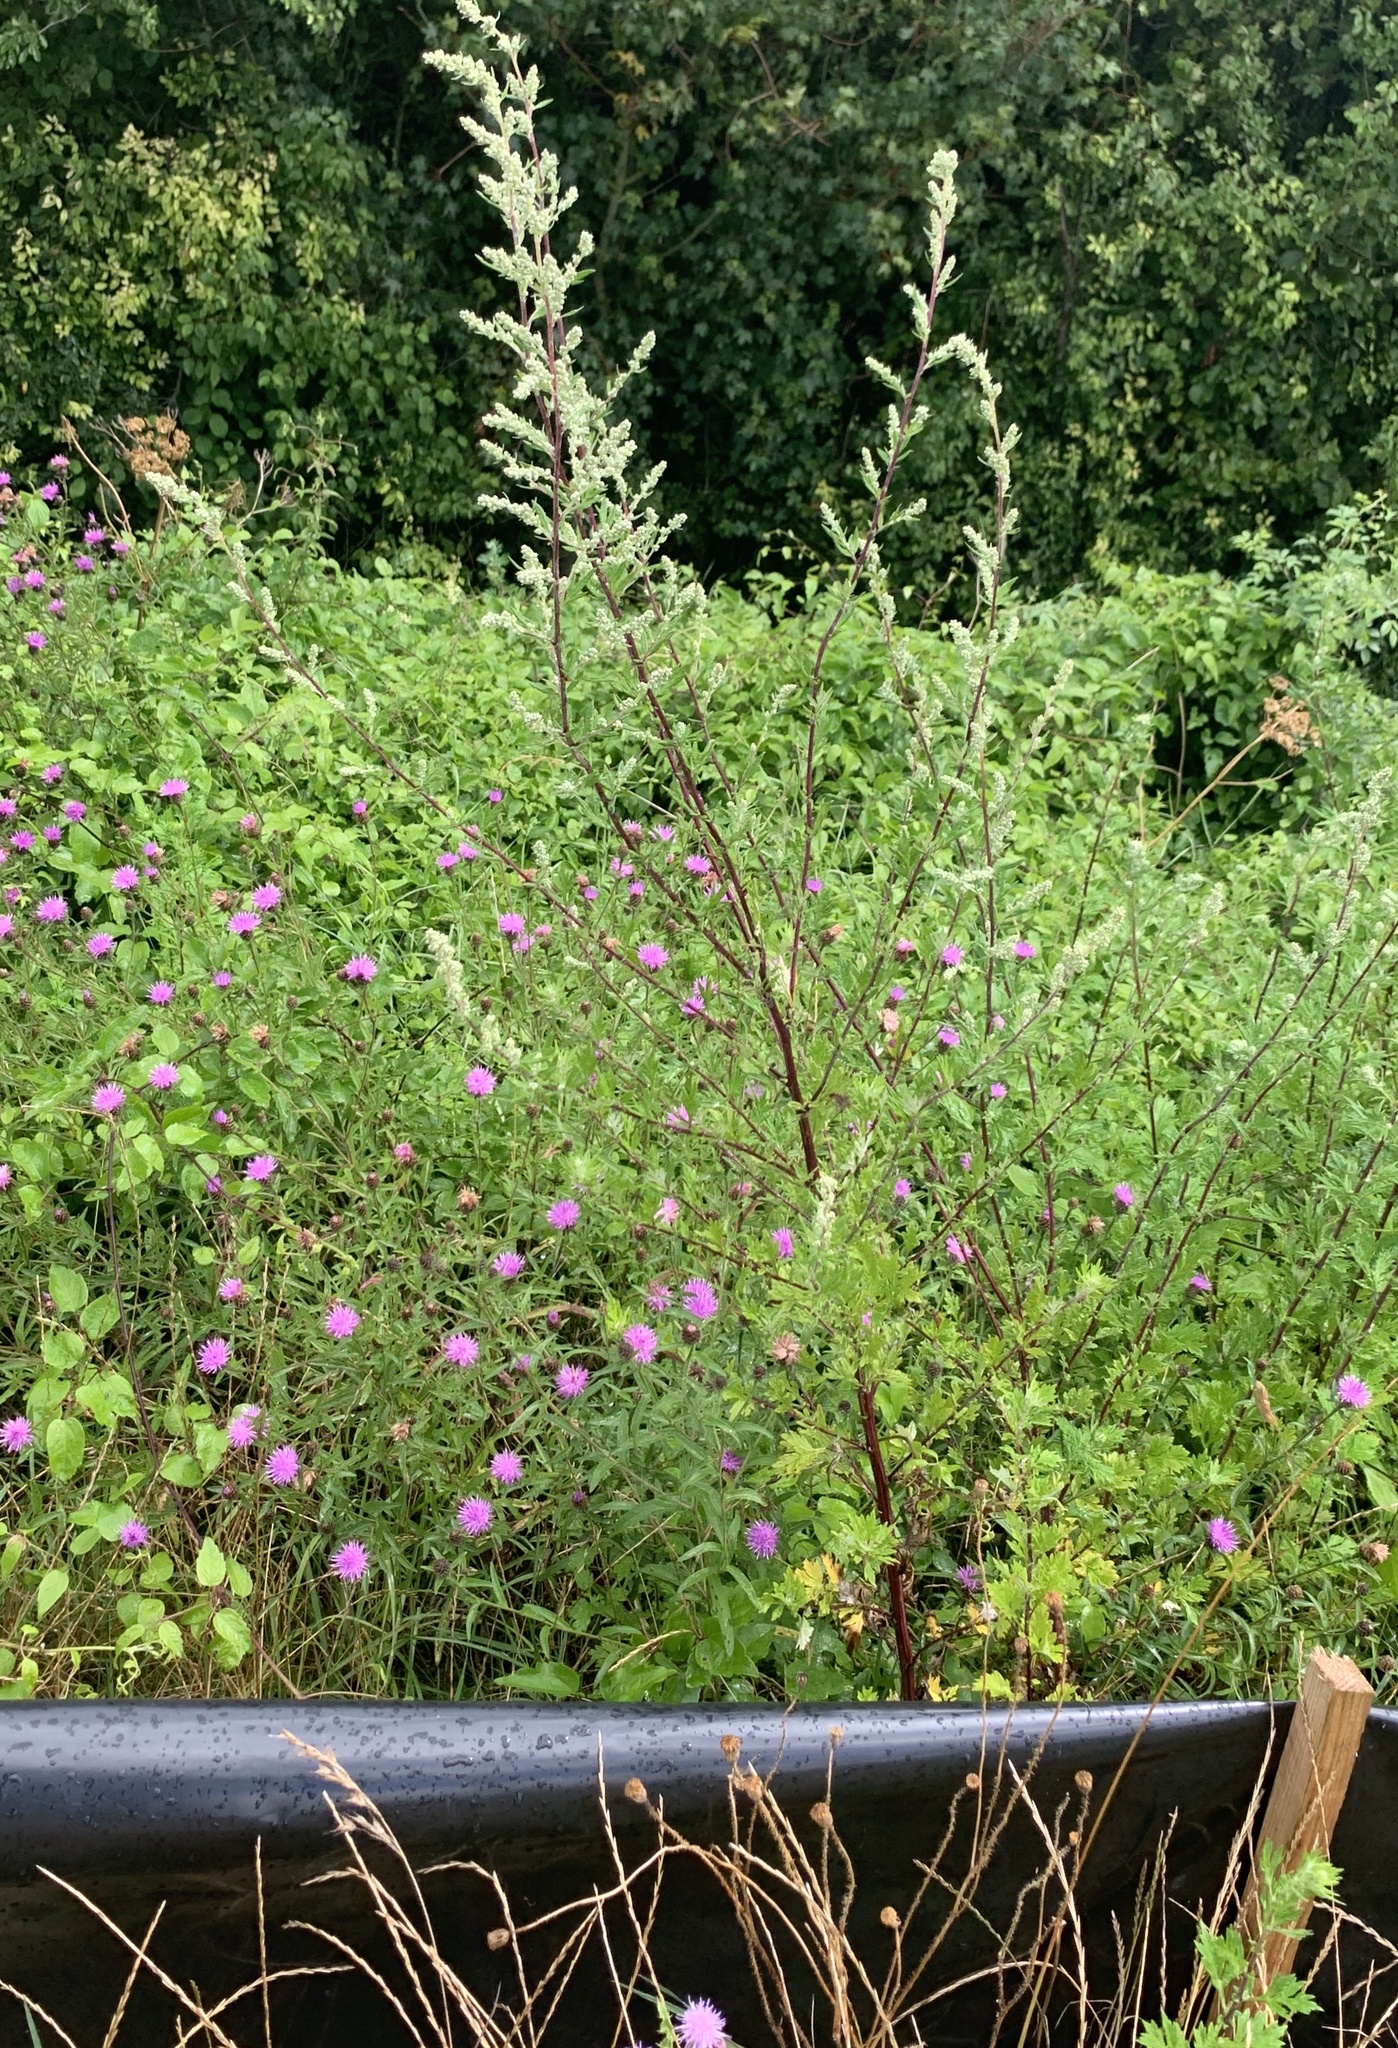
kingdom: Plantae
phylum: Tracheophyta
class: Magnoliopsida
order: Asterales
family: Asteraceae
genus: Artemisia
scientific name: Artemisia vulgaris
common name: Mugwort
